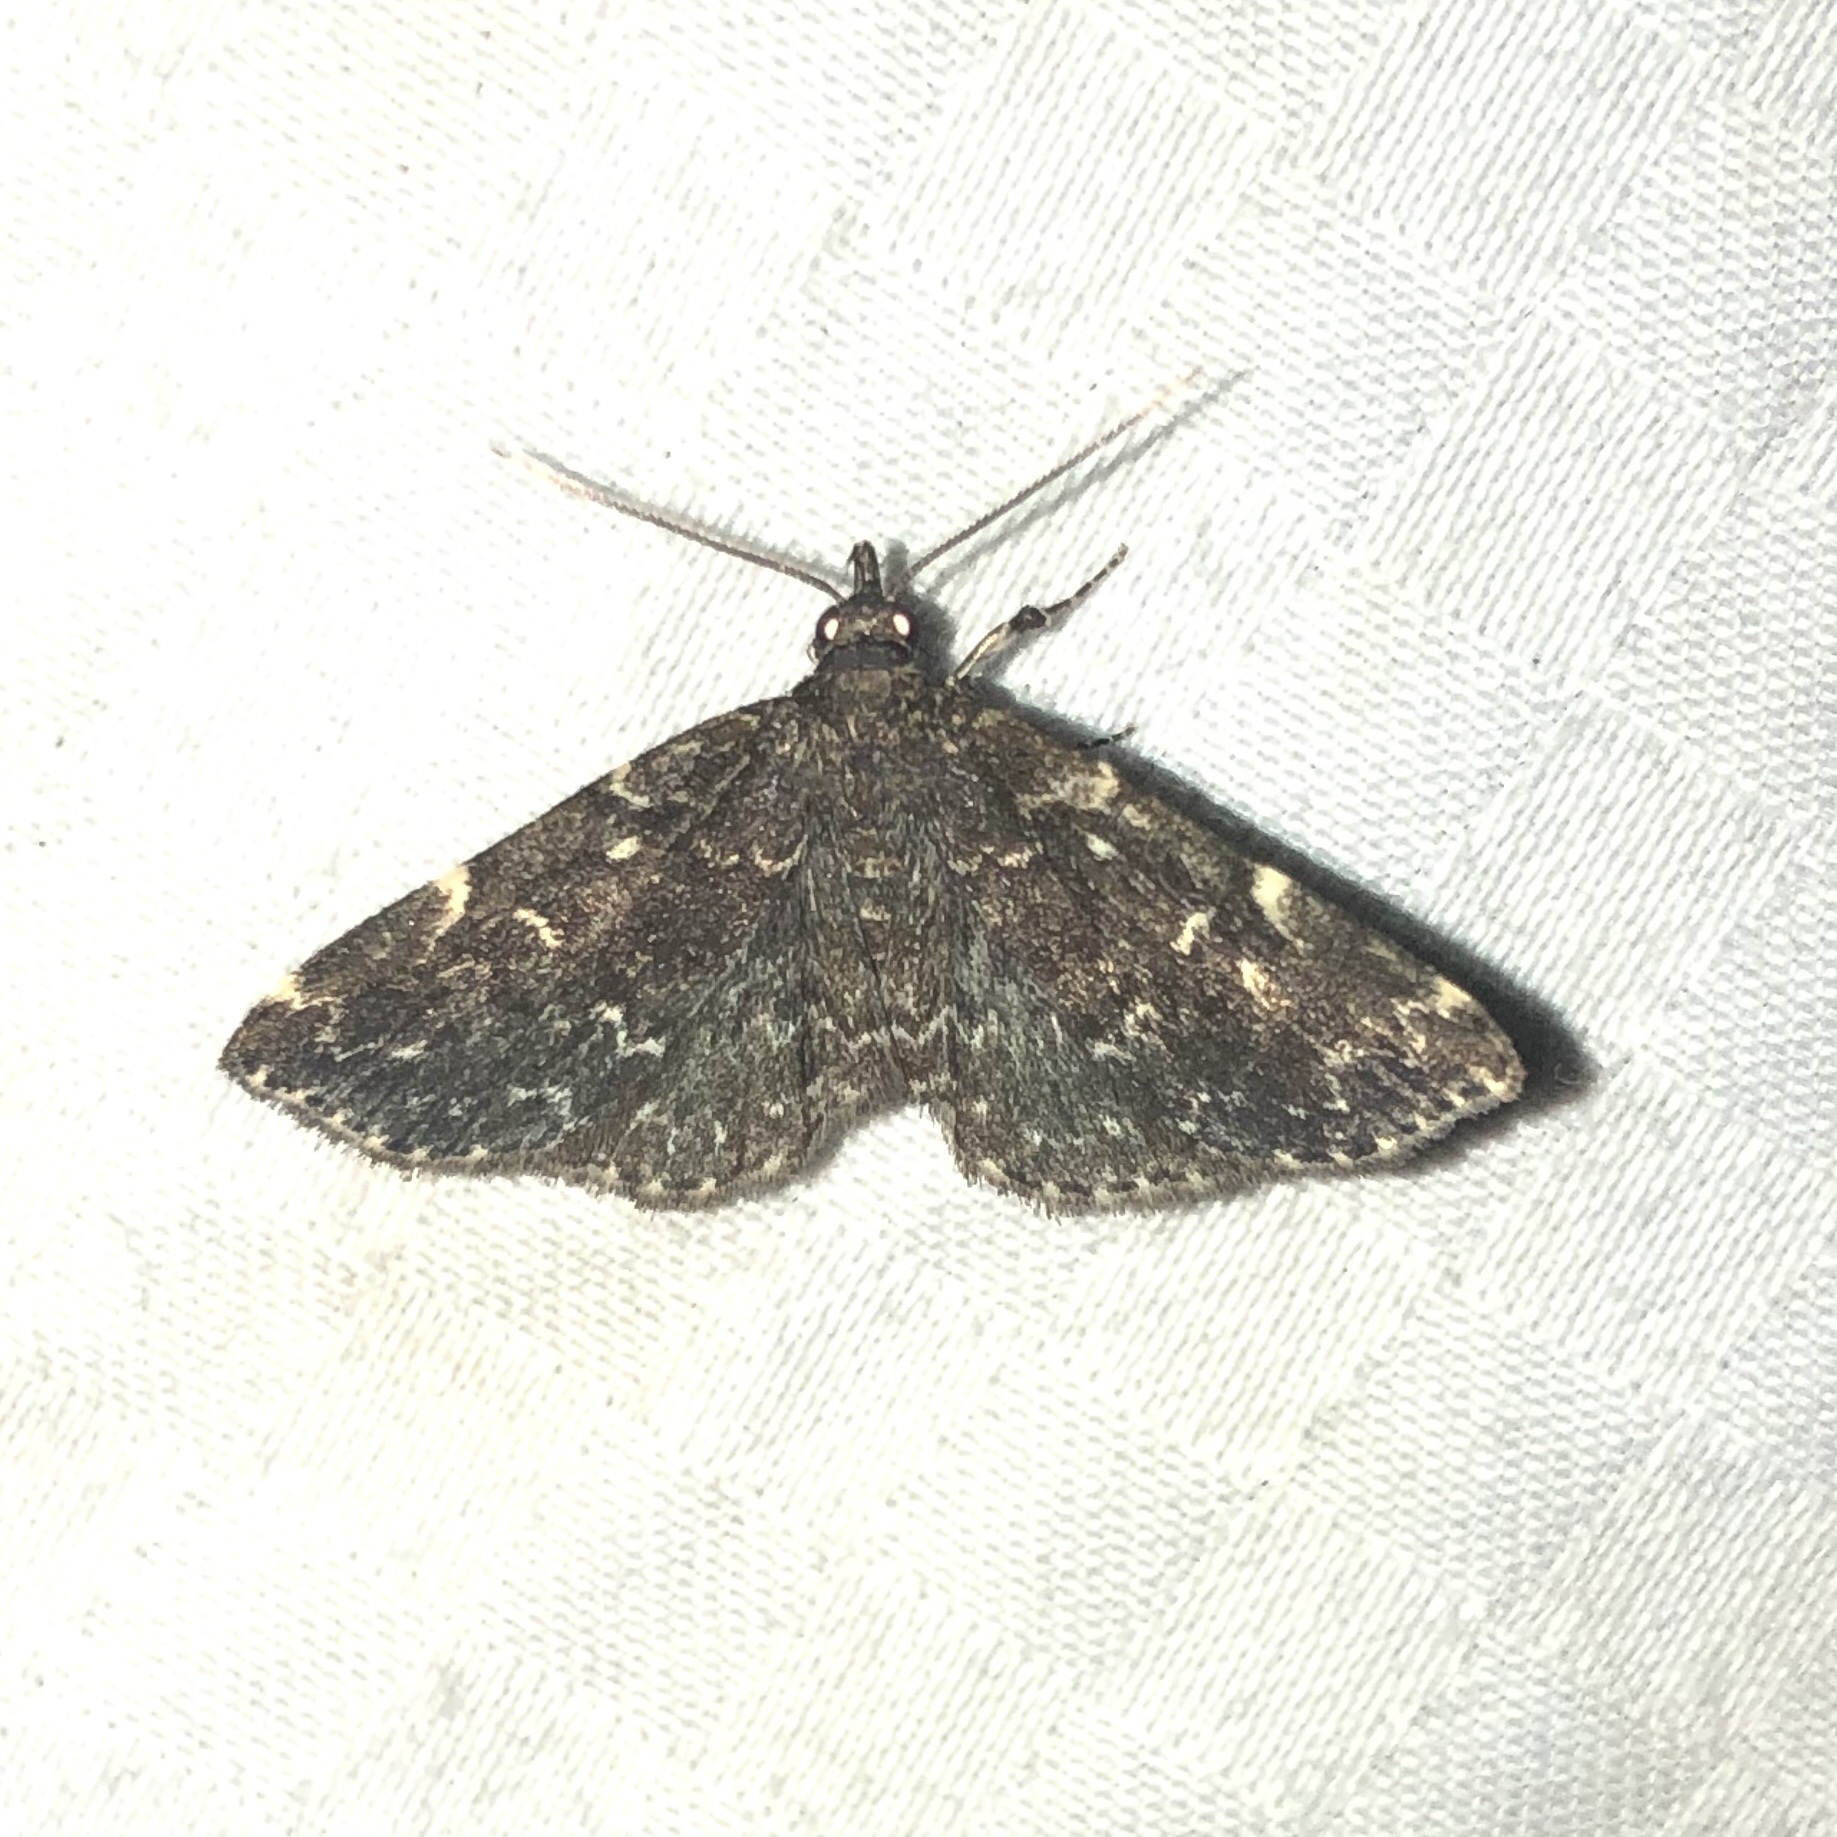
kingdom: Animalia
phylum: Arthropoda
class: Insecta
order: Lepidoptera
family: Erebidae
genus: Idia
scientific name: Idia lubricalis
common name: Twin-striped tabby
